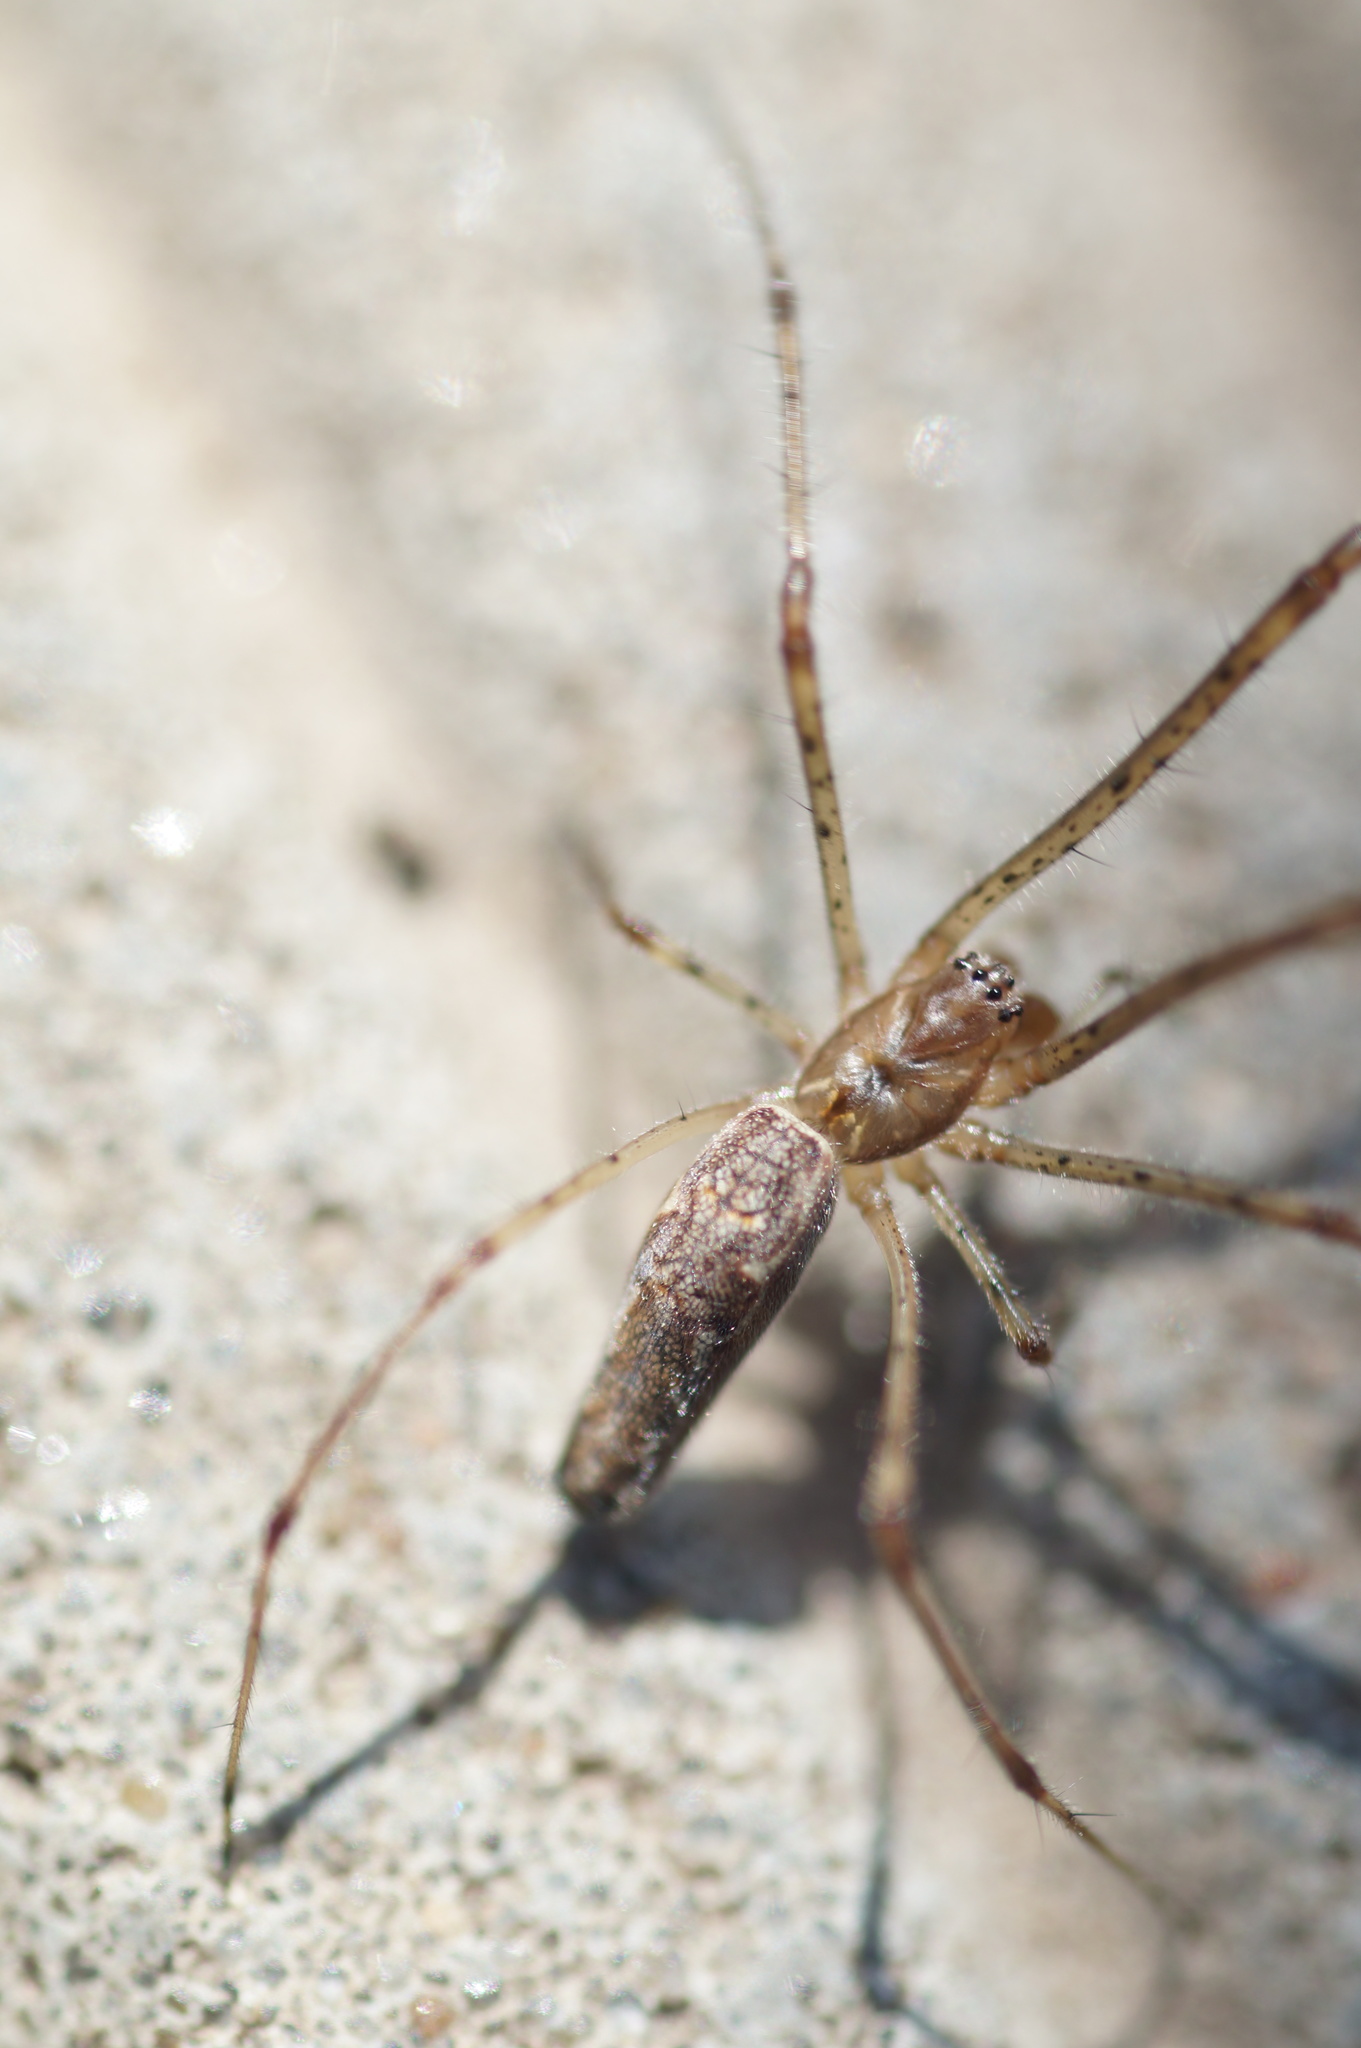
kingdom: Animalia
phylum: Arthropoda
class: Arachnida
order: Araneae
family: Tetragnathidae
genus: Tetragnatha
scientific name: Tetragnatha montana
